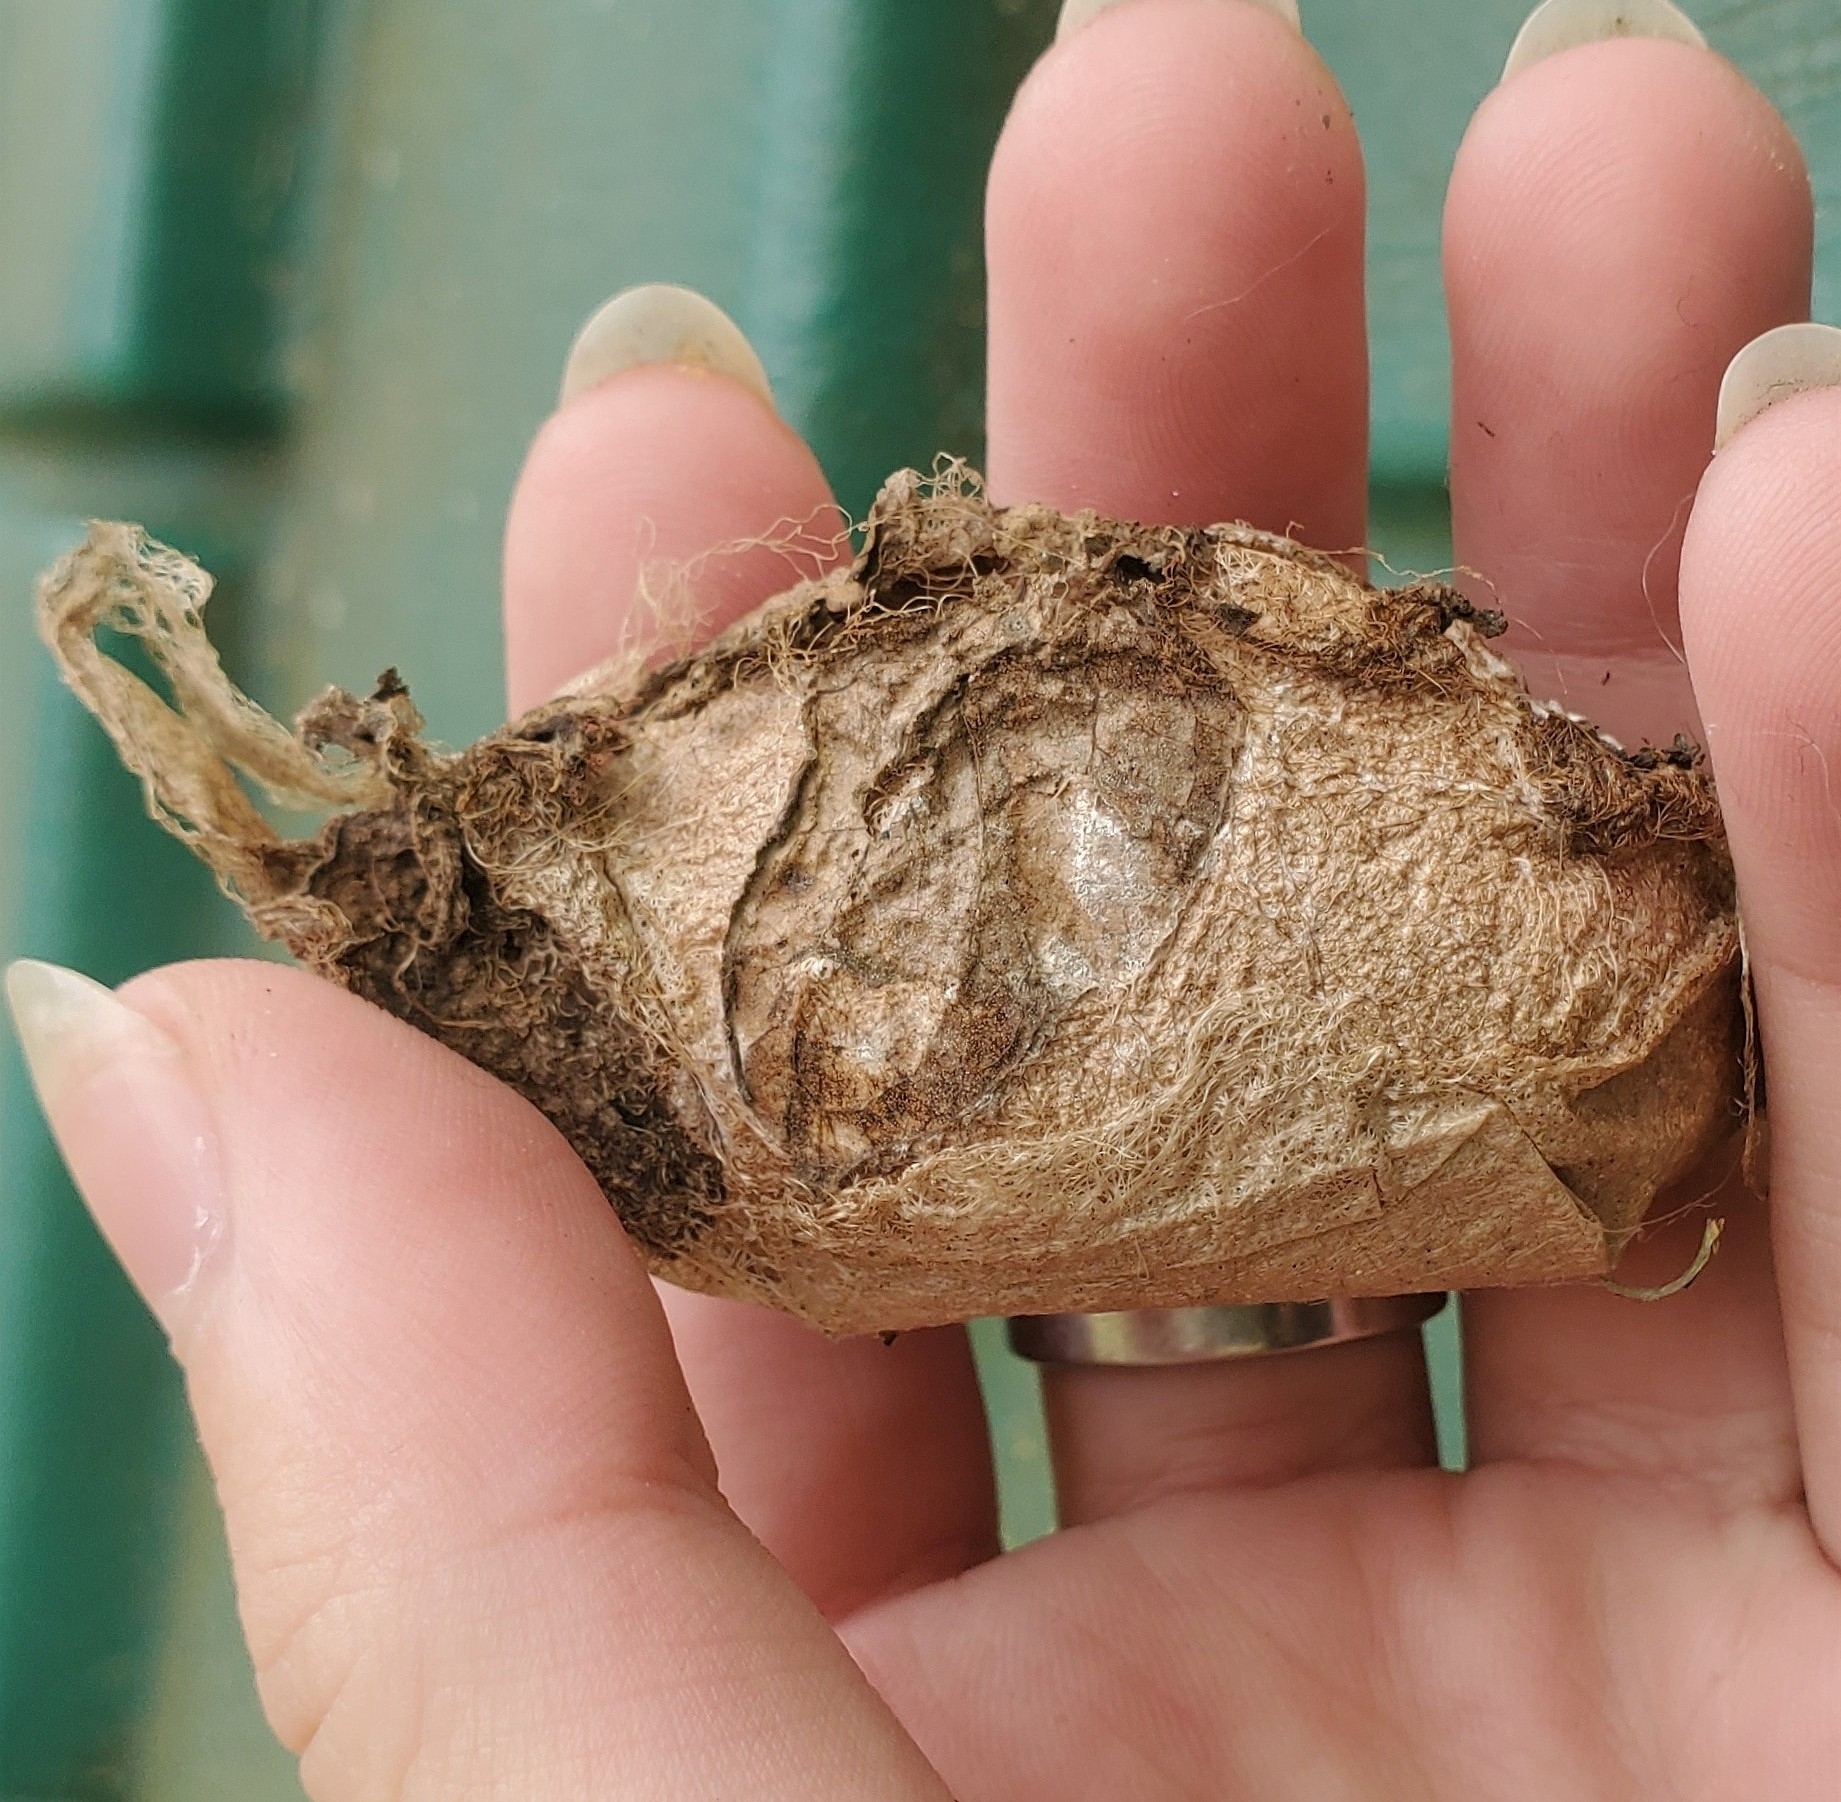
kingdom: Animalia
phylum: Arthropoda
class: Insecta
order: Lepidoptera
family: Saturniidae
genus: Antheraea
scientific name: Antheraea polyphemus
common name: Polyphemus moth
